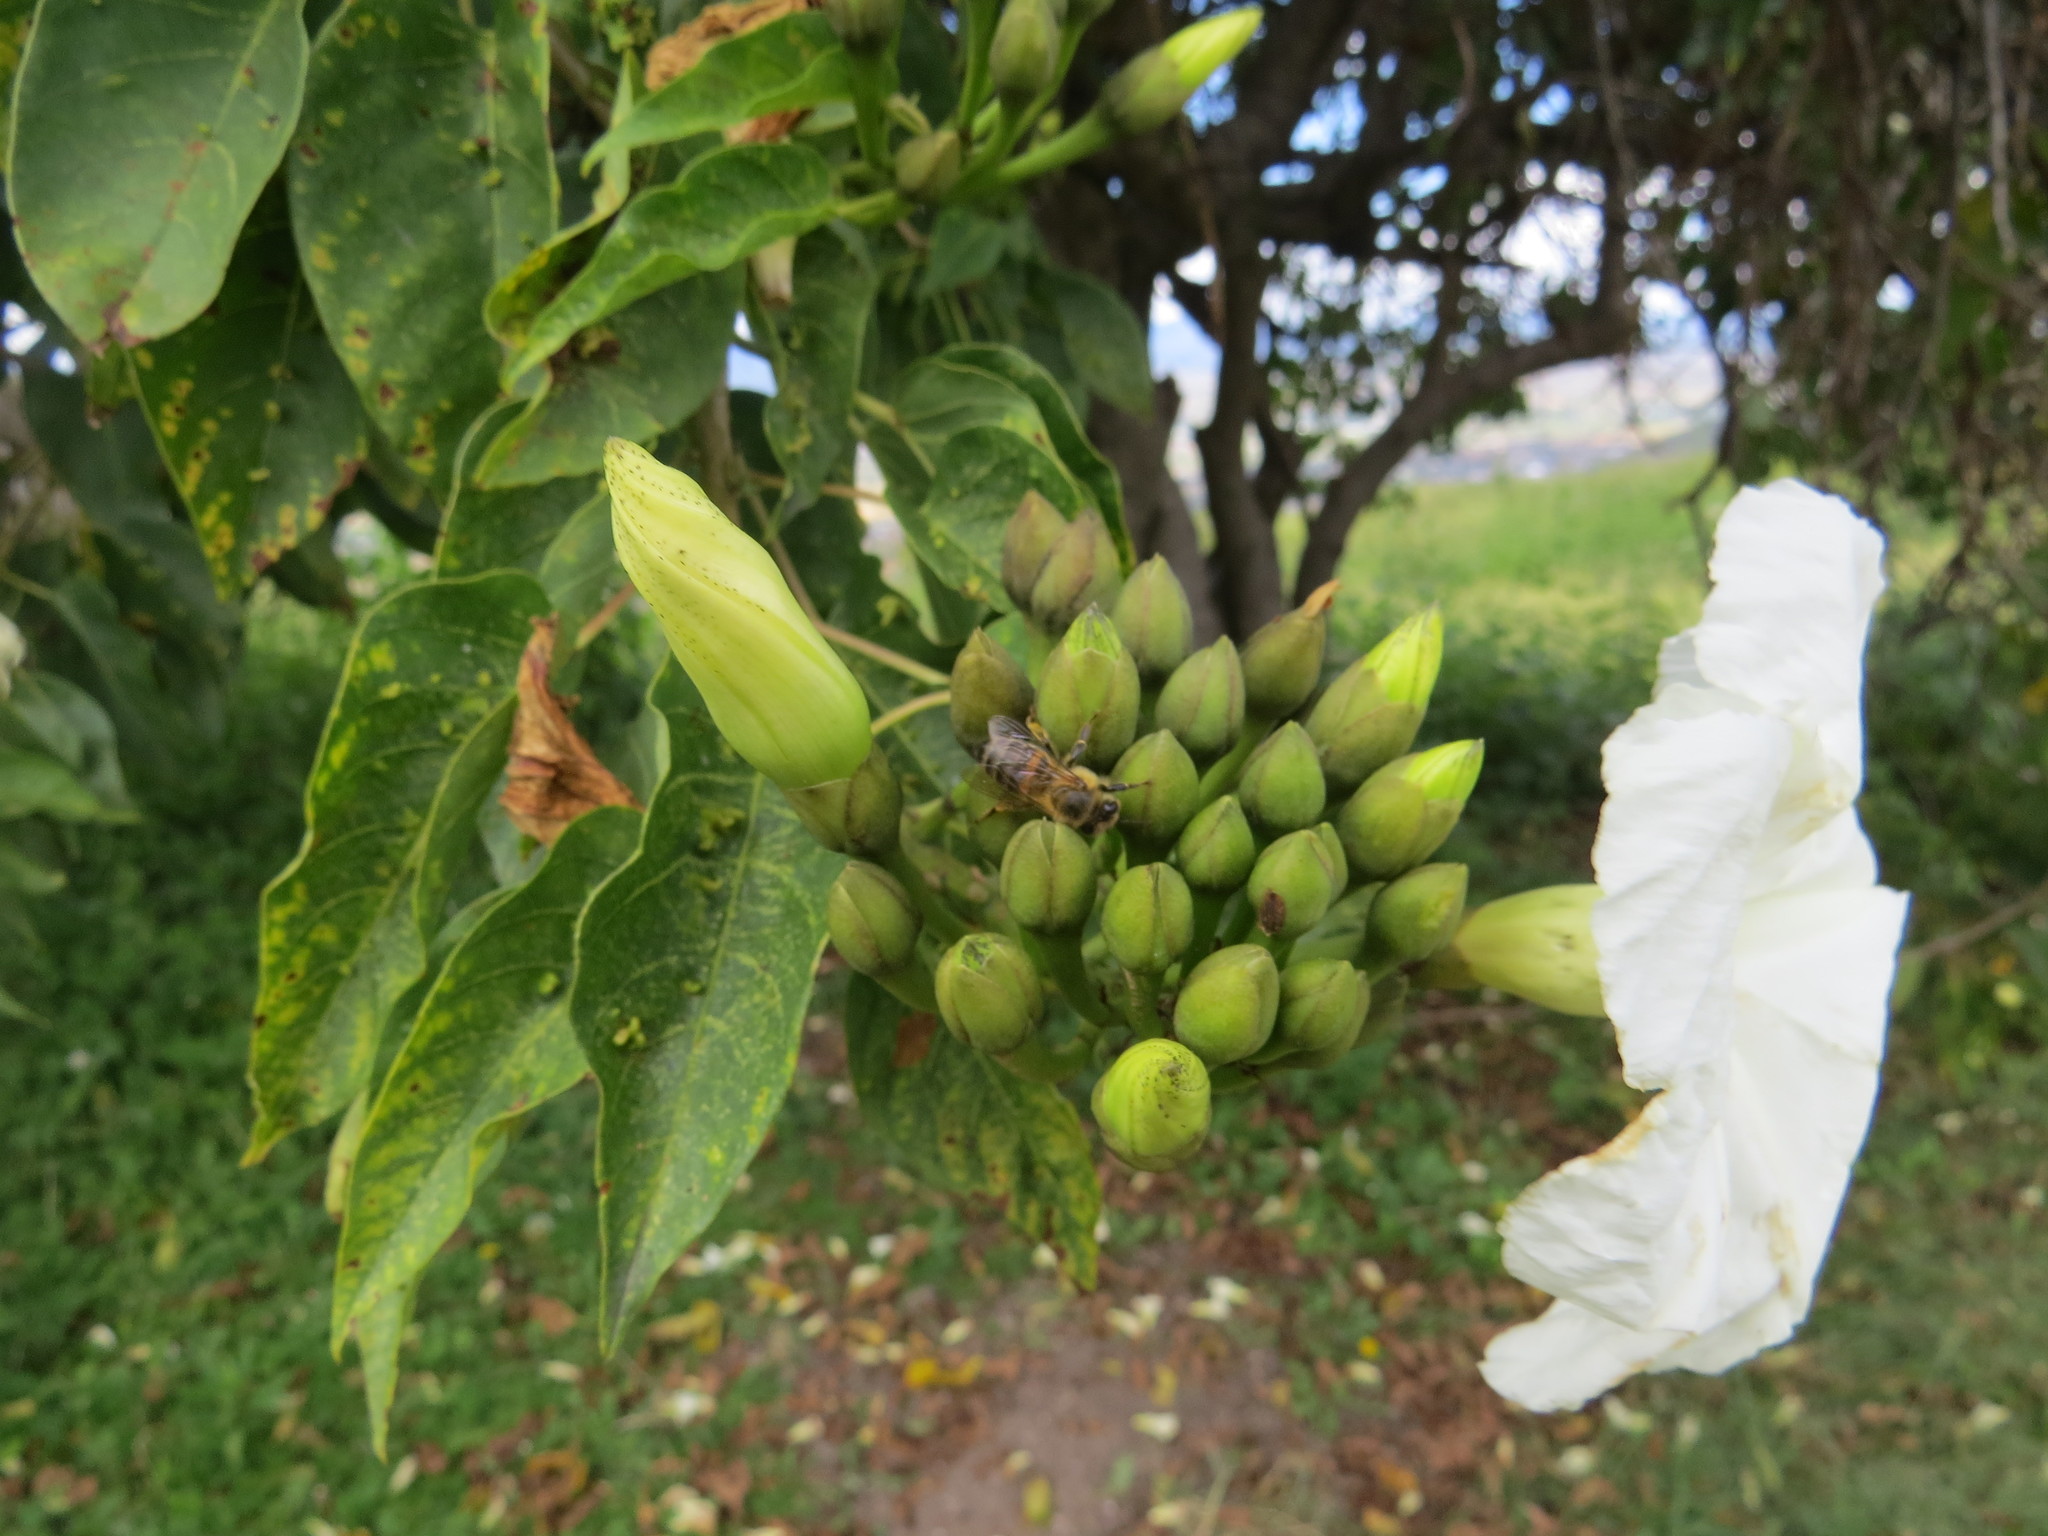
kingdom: Animalia
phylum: Arthropoda
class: Insecta
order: Hymenoptera
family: Apidae
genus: Apis
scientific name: Apis mellifera
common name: Honey bee
